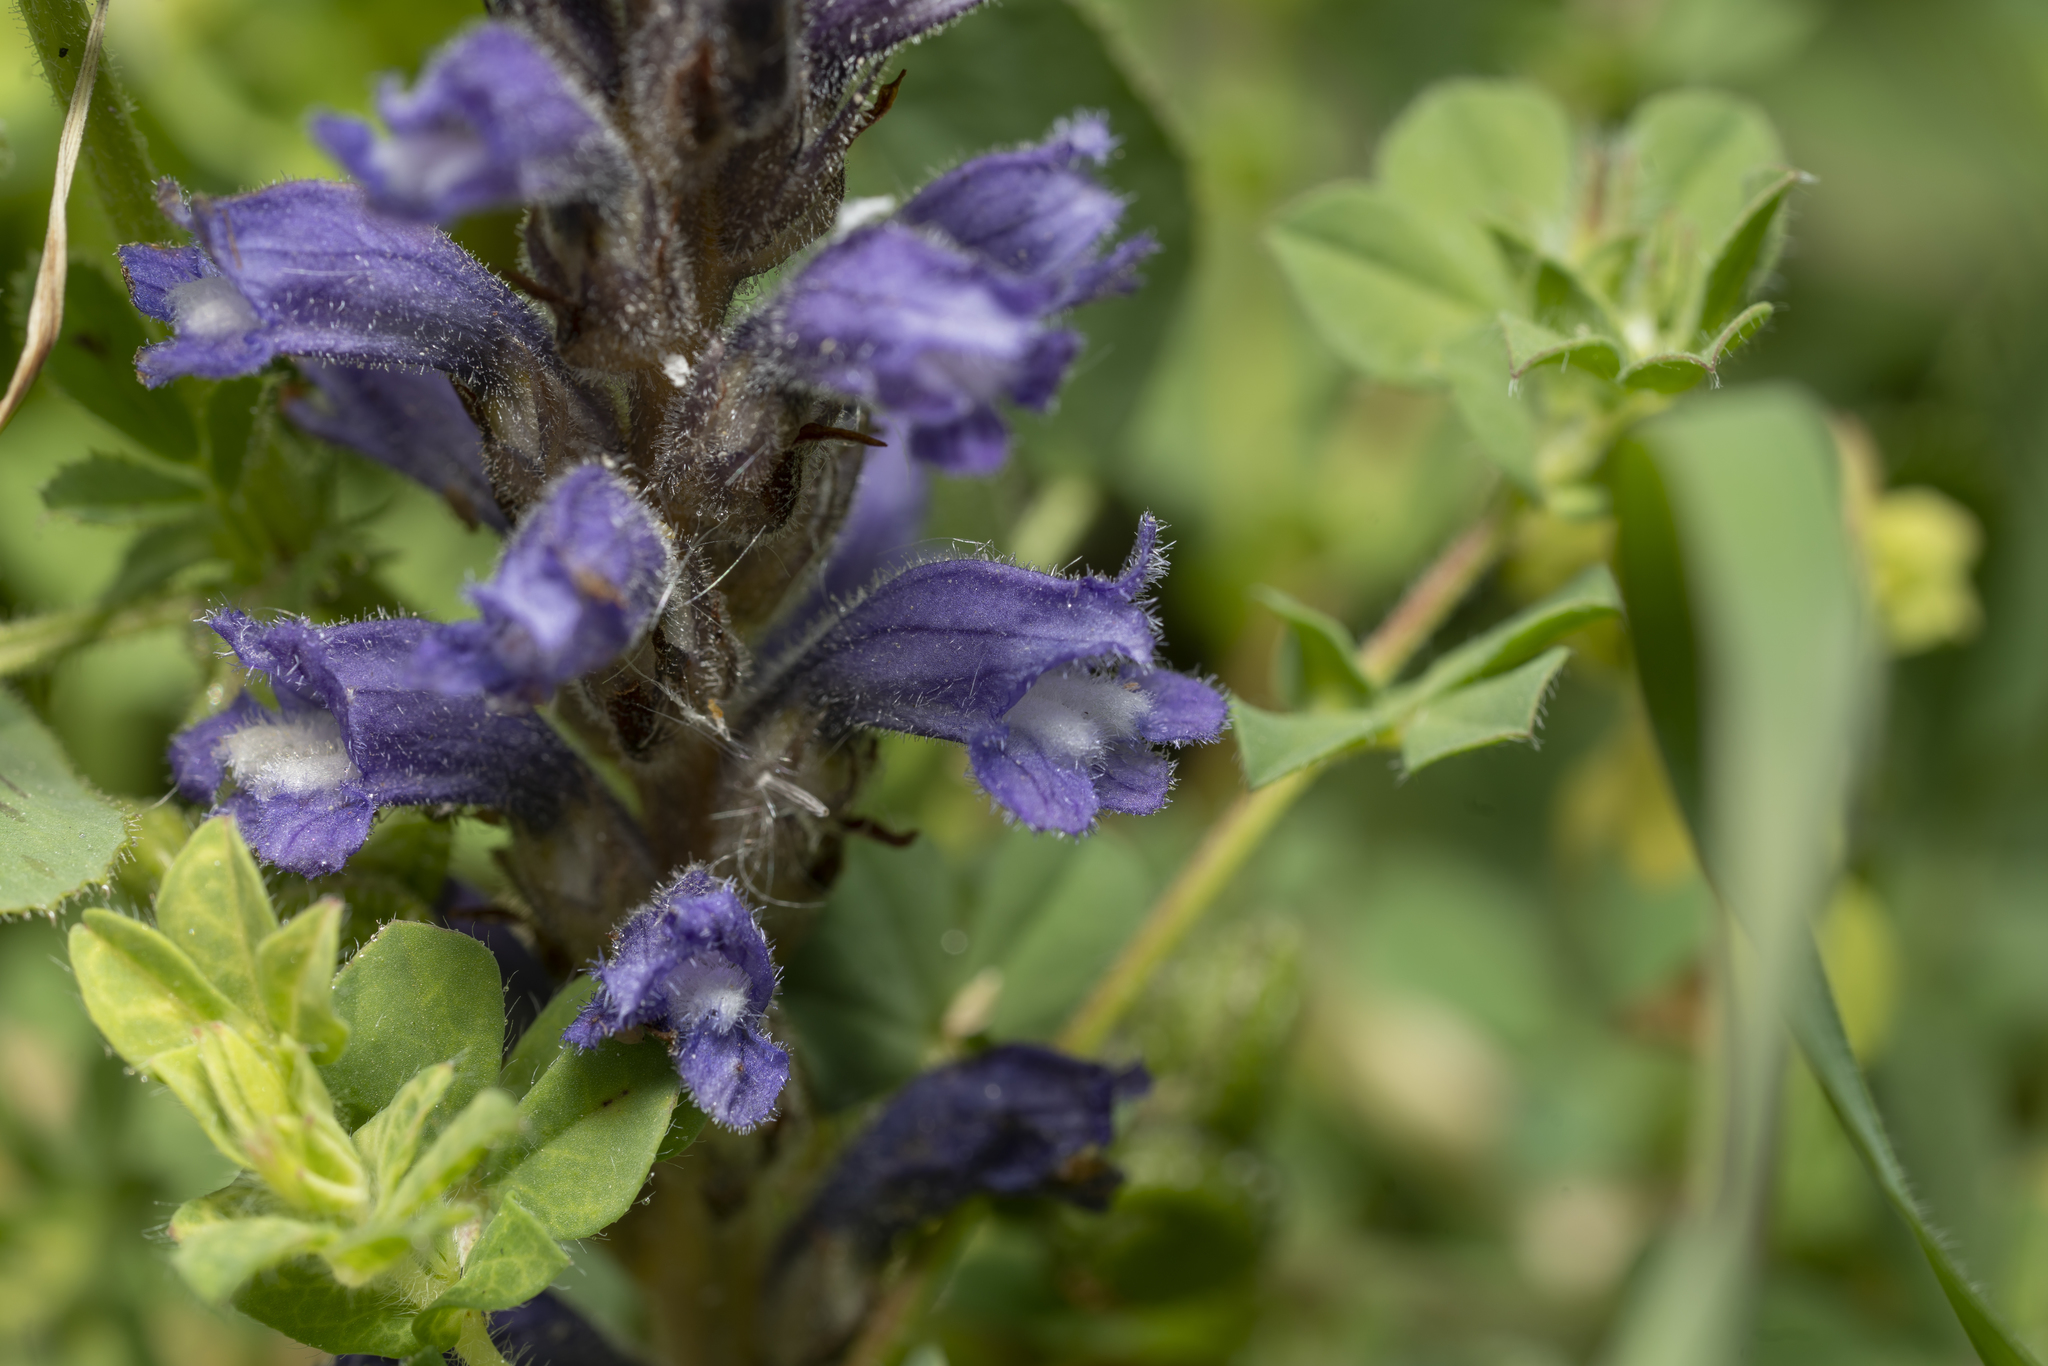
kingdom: Plantae
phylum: Tracheophyta
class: Magnoliopsida
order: Lamiales
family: Orobanchaceae
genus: Phelipanche
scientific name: Phelipanche mutelii
